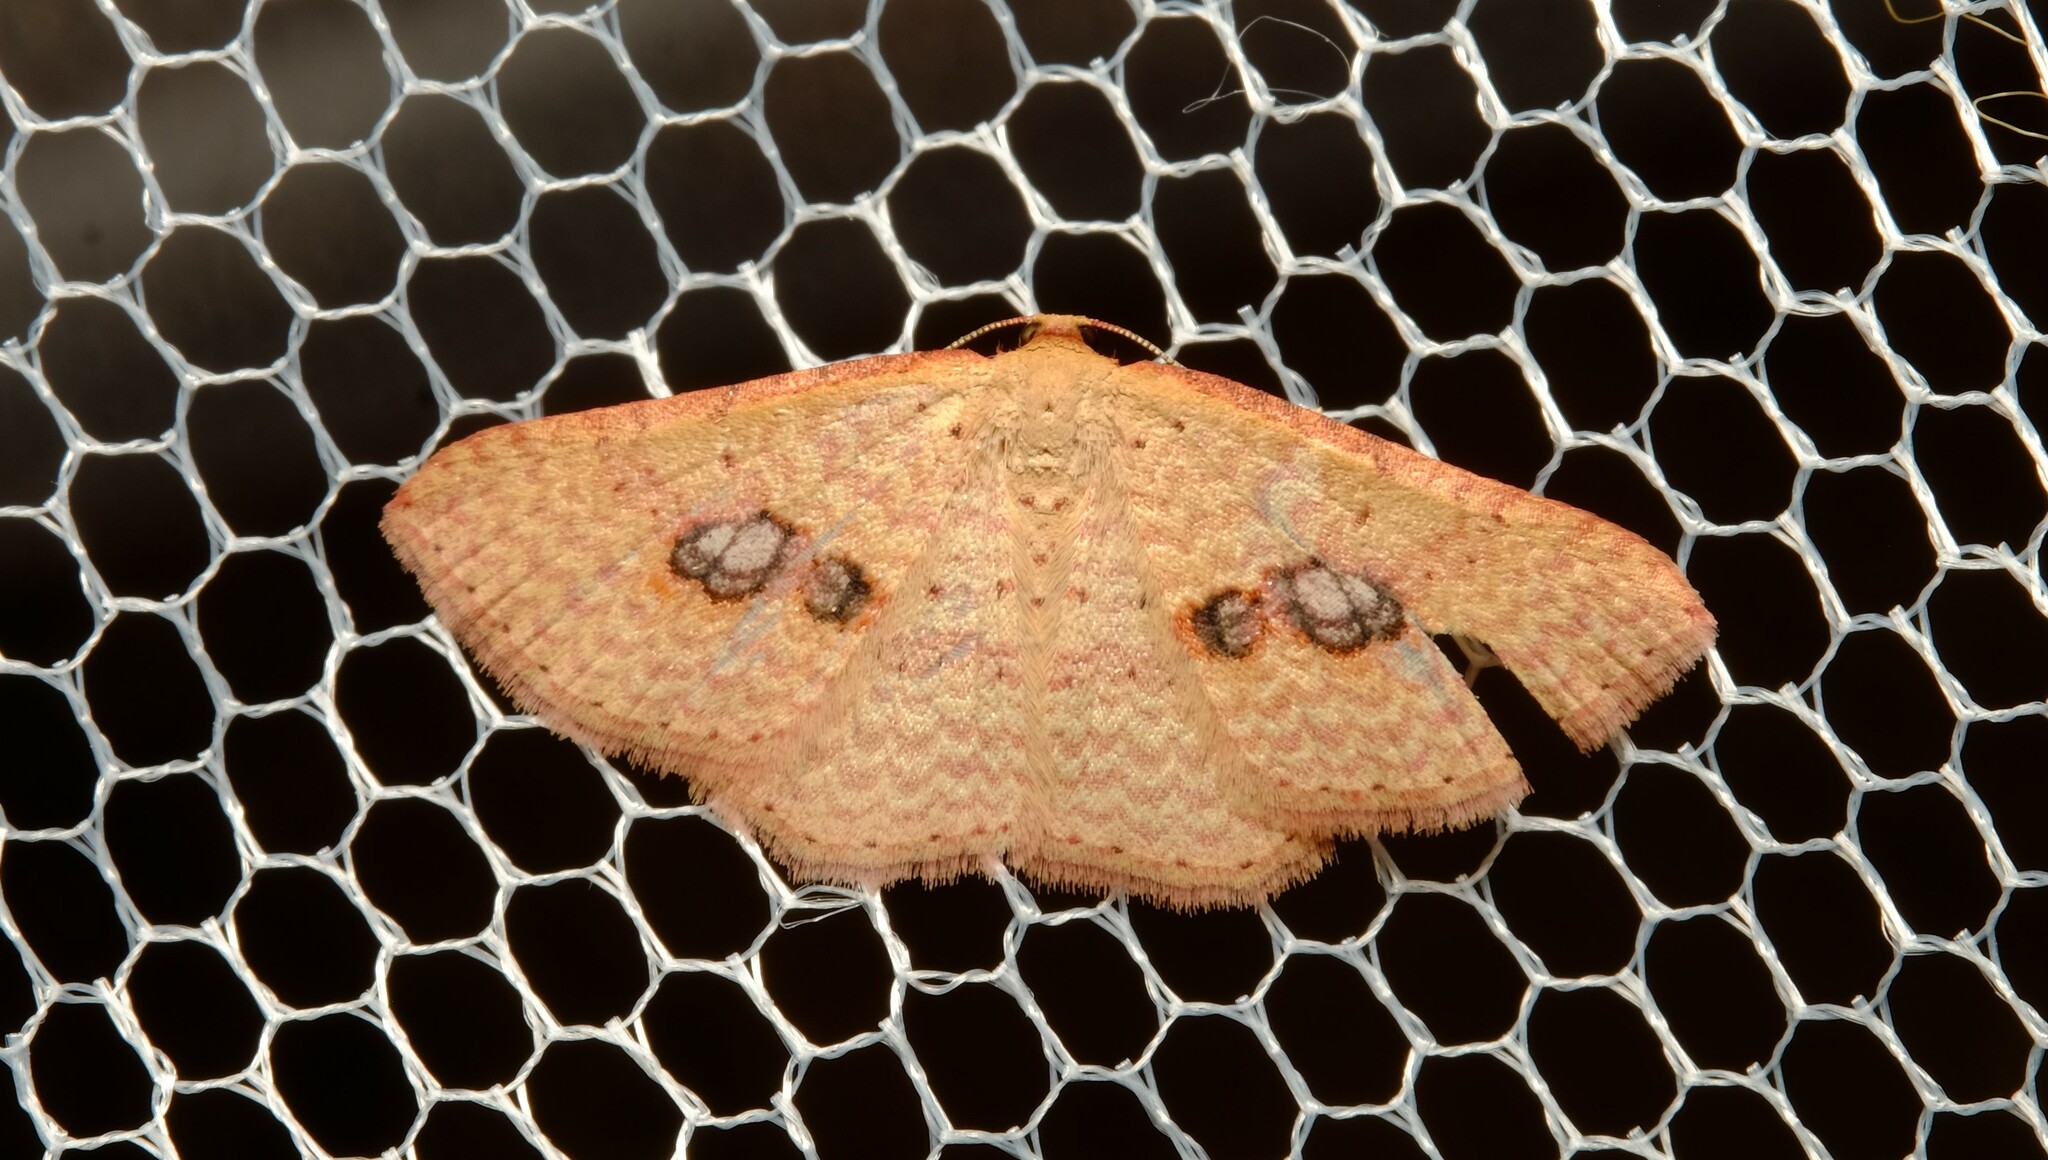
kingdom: Animalia
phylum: Arthropoda
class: Insecta
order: Lepidoptera
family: Geometridae
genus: Epicyme
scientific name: Epicyme rubropunctaria
